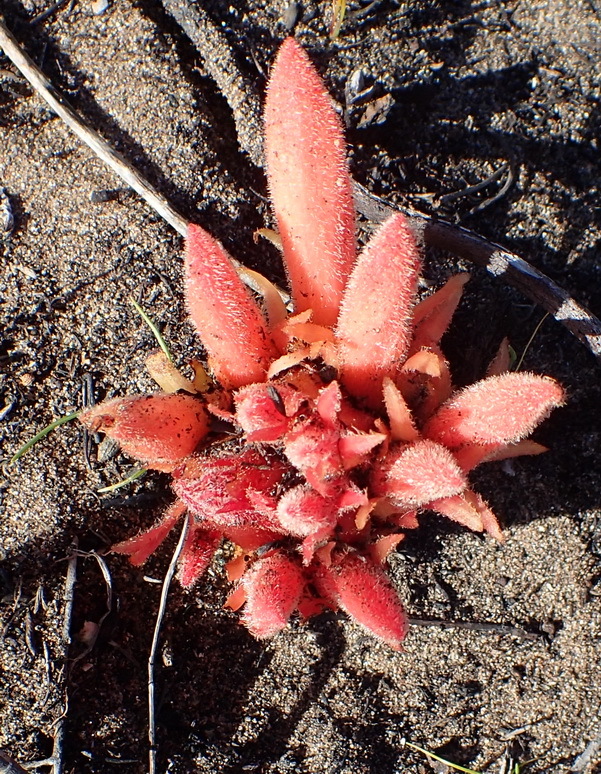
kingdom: Plantae
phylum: Tracheophyta
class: Magnoliopsida
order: Lamiales
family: Orobanchaceae
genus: Hyobanche
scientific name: Hyobanche glabrata
